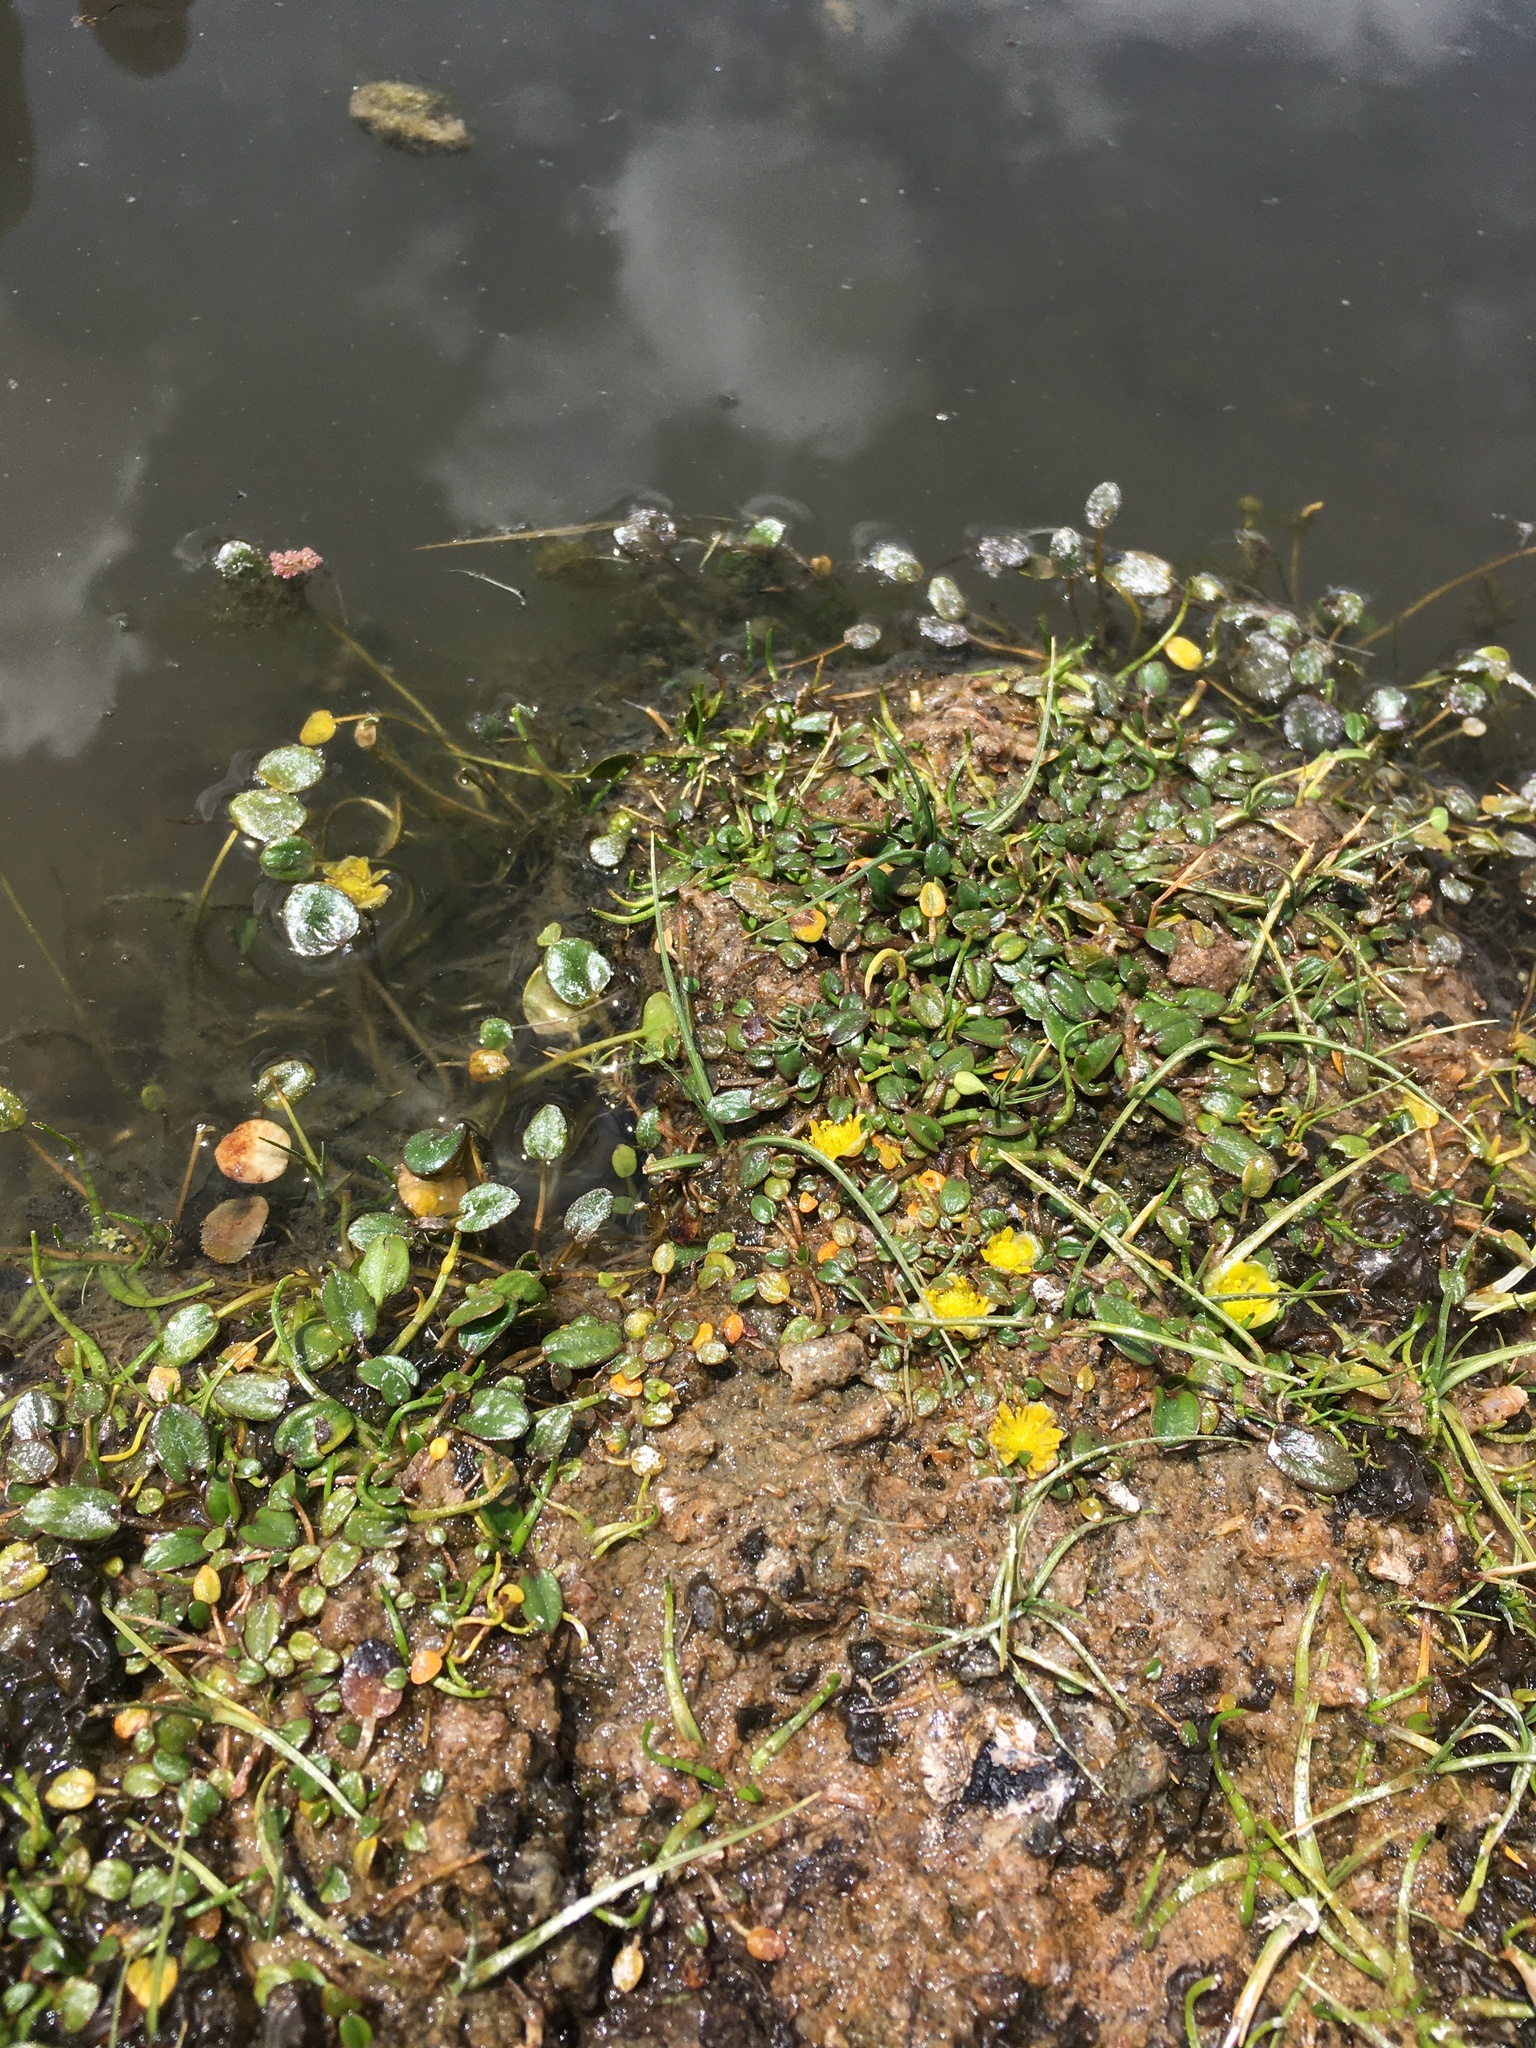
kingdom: Plantae
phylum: Tracheophyta
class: Magnoliopsida
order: Ranunculales
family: Ranunculaceae
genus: Halerpestes
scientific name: Halerpestes uniflora
